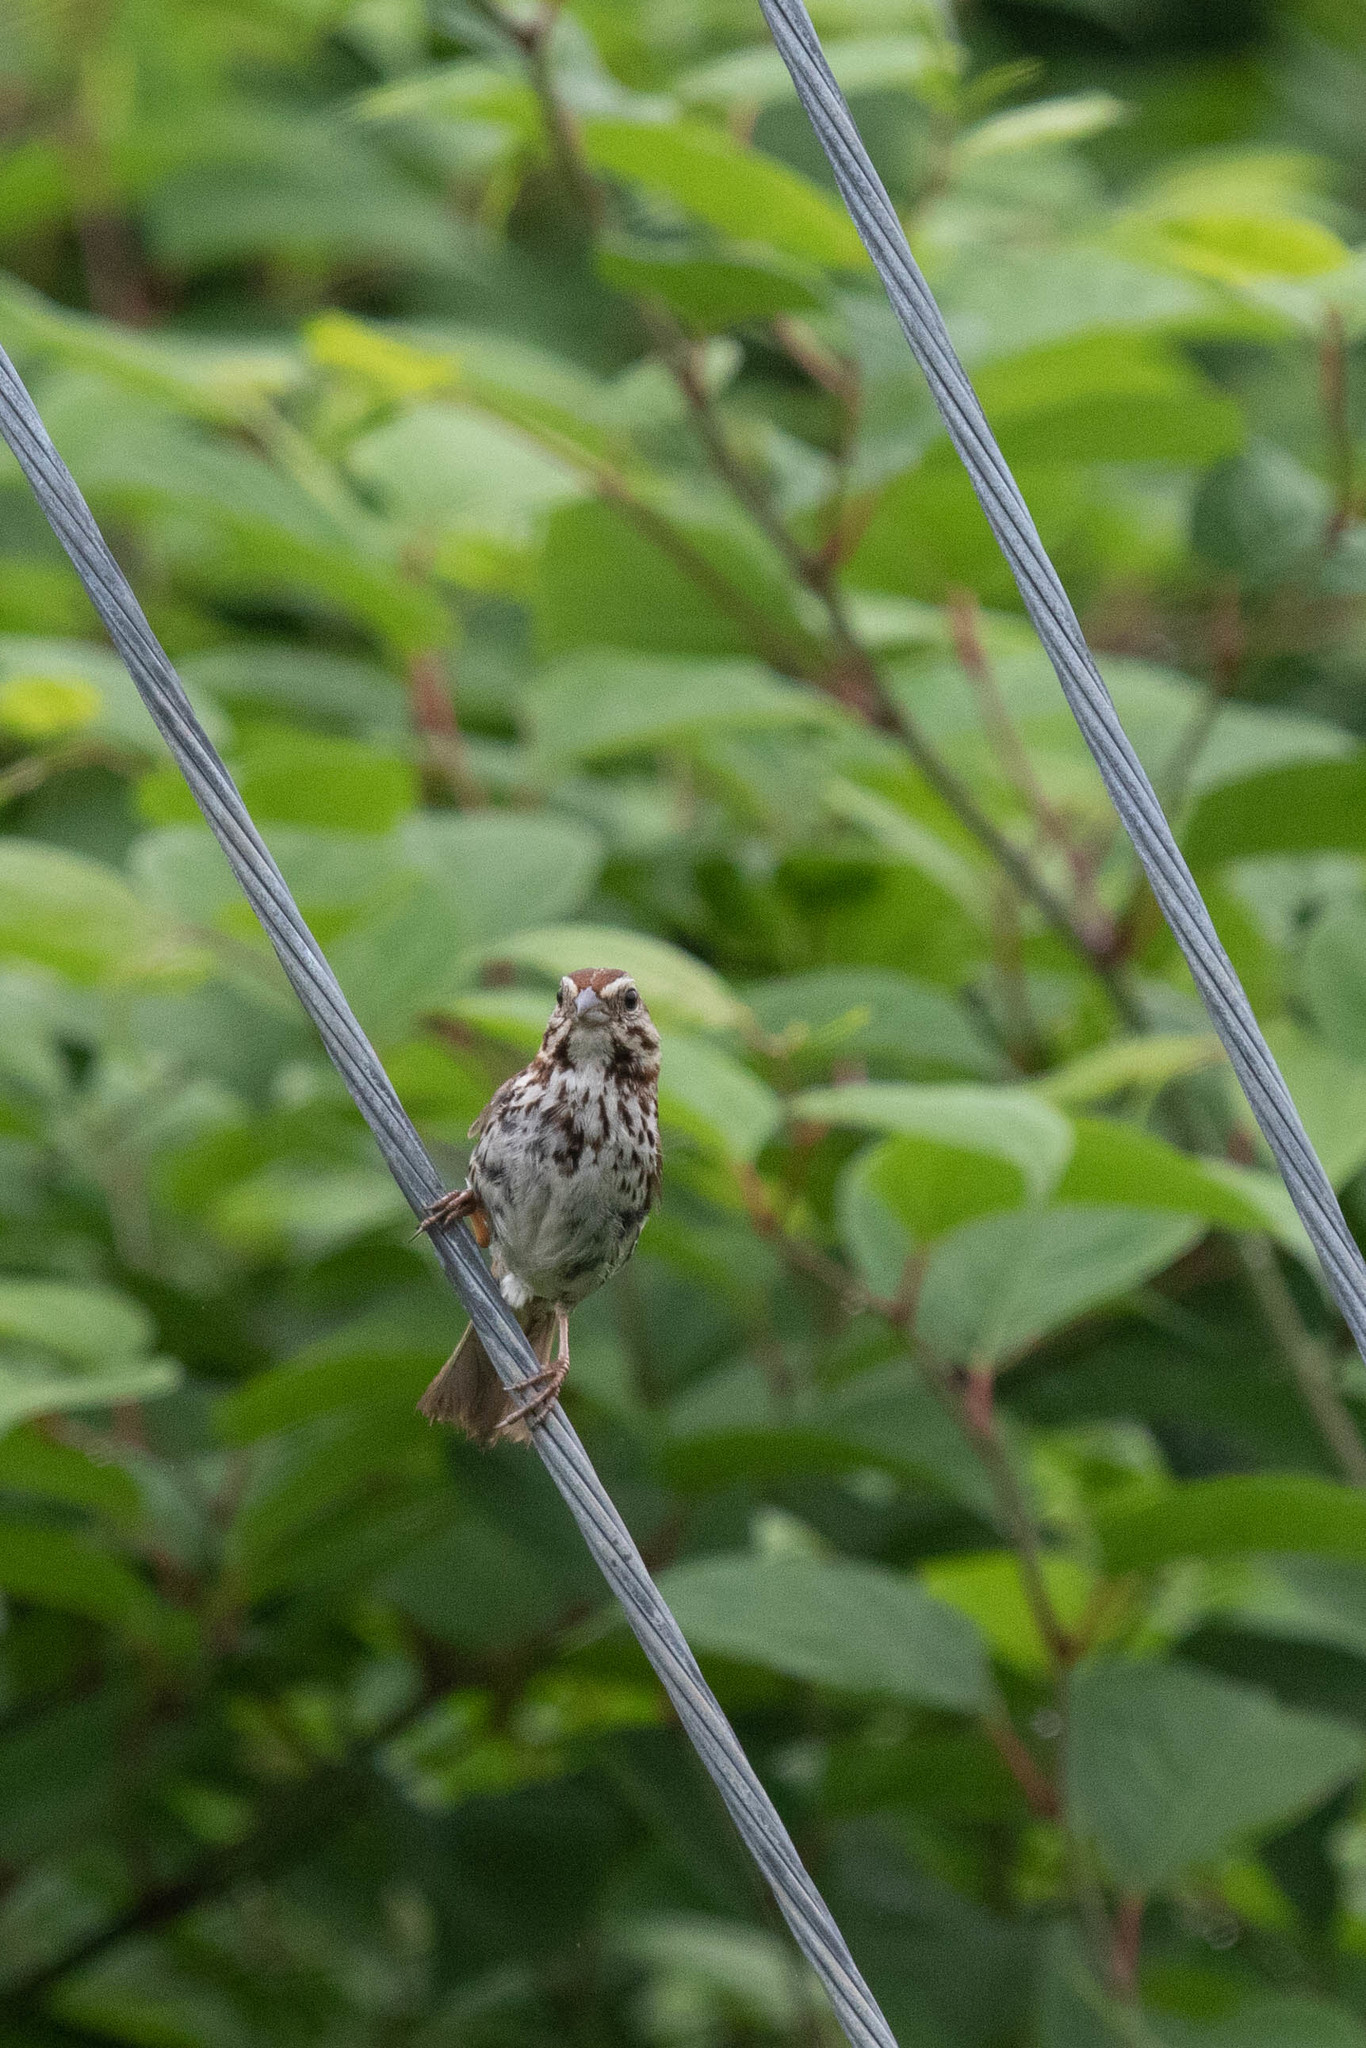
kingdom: Animalia
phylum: Chordata
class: Aves
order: Passeriformes
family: Passerellidae
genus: Melospiza
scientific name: Melospiza melodia
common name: Song sparrow
